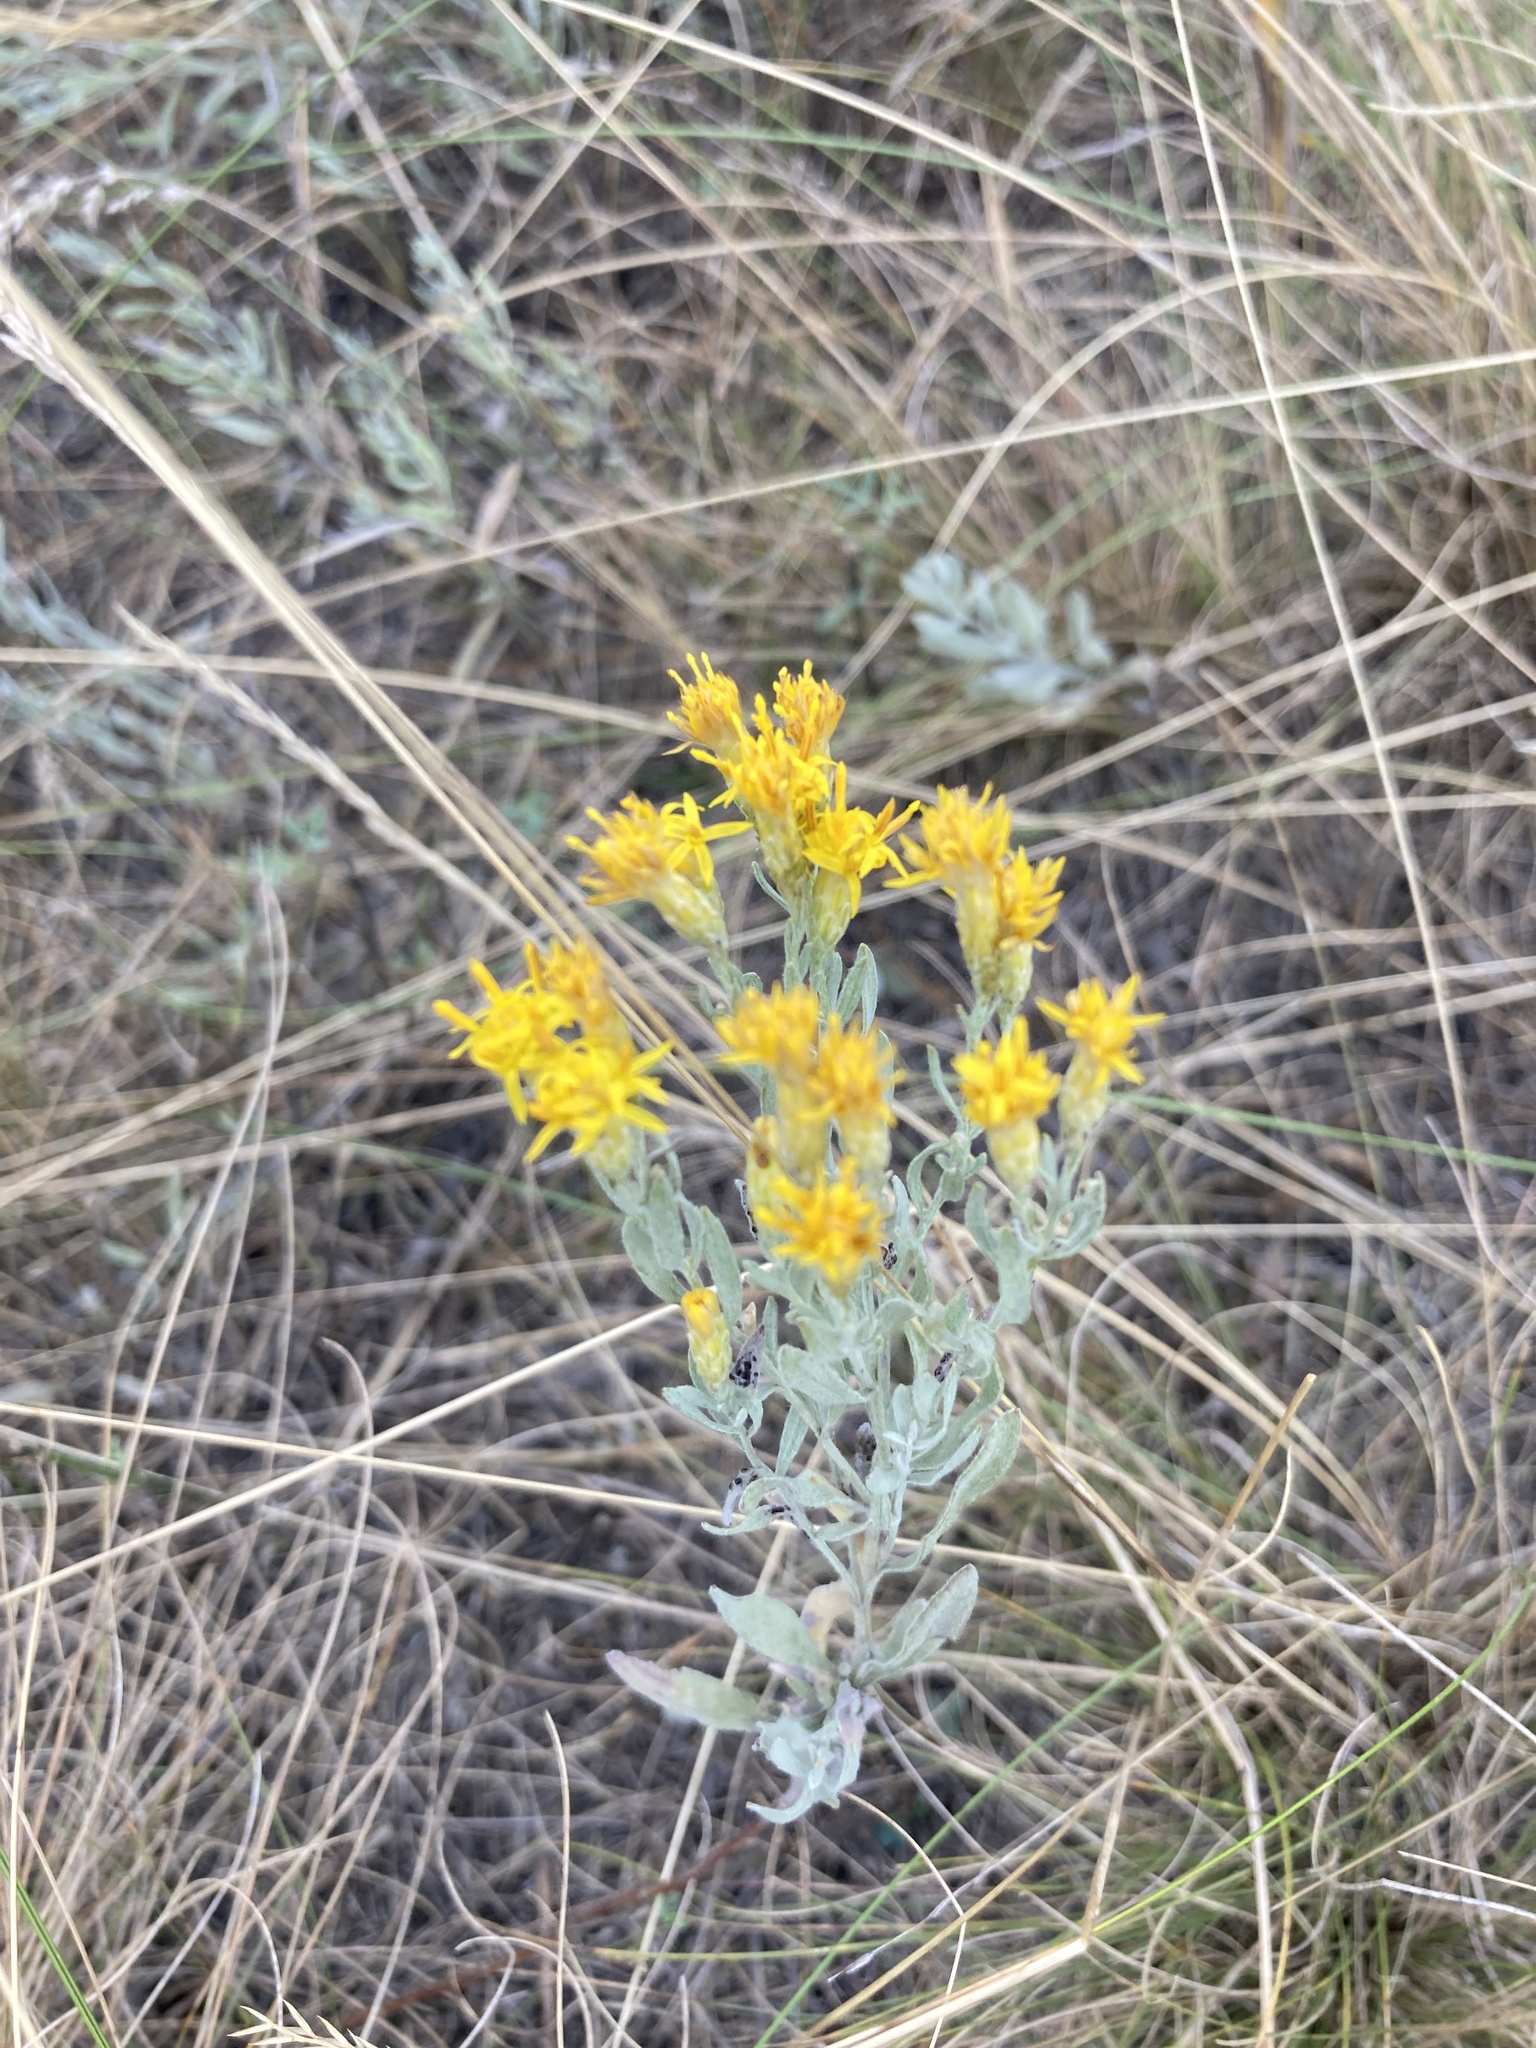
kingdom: Plantae
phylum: Tracheophyta
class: Magnoliopsida
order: Asterales
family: Asteraceae
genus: Galatella
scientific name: Galatella villosa
